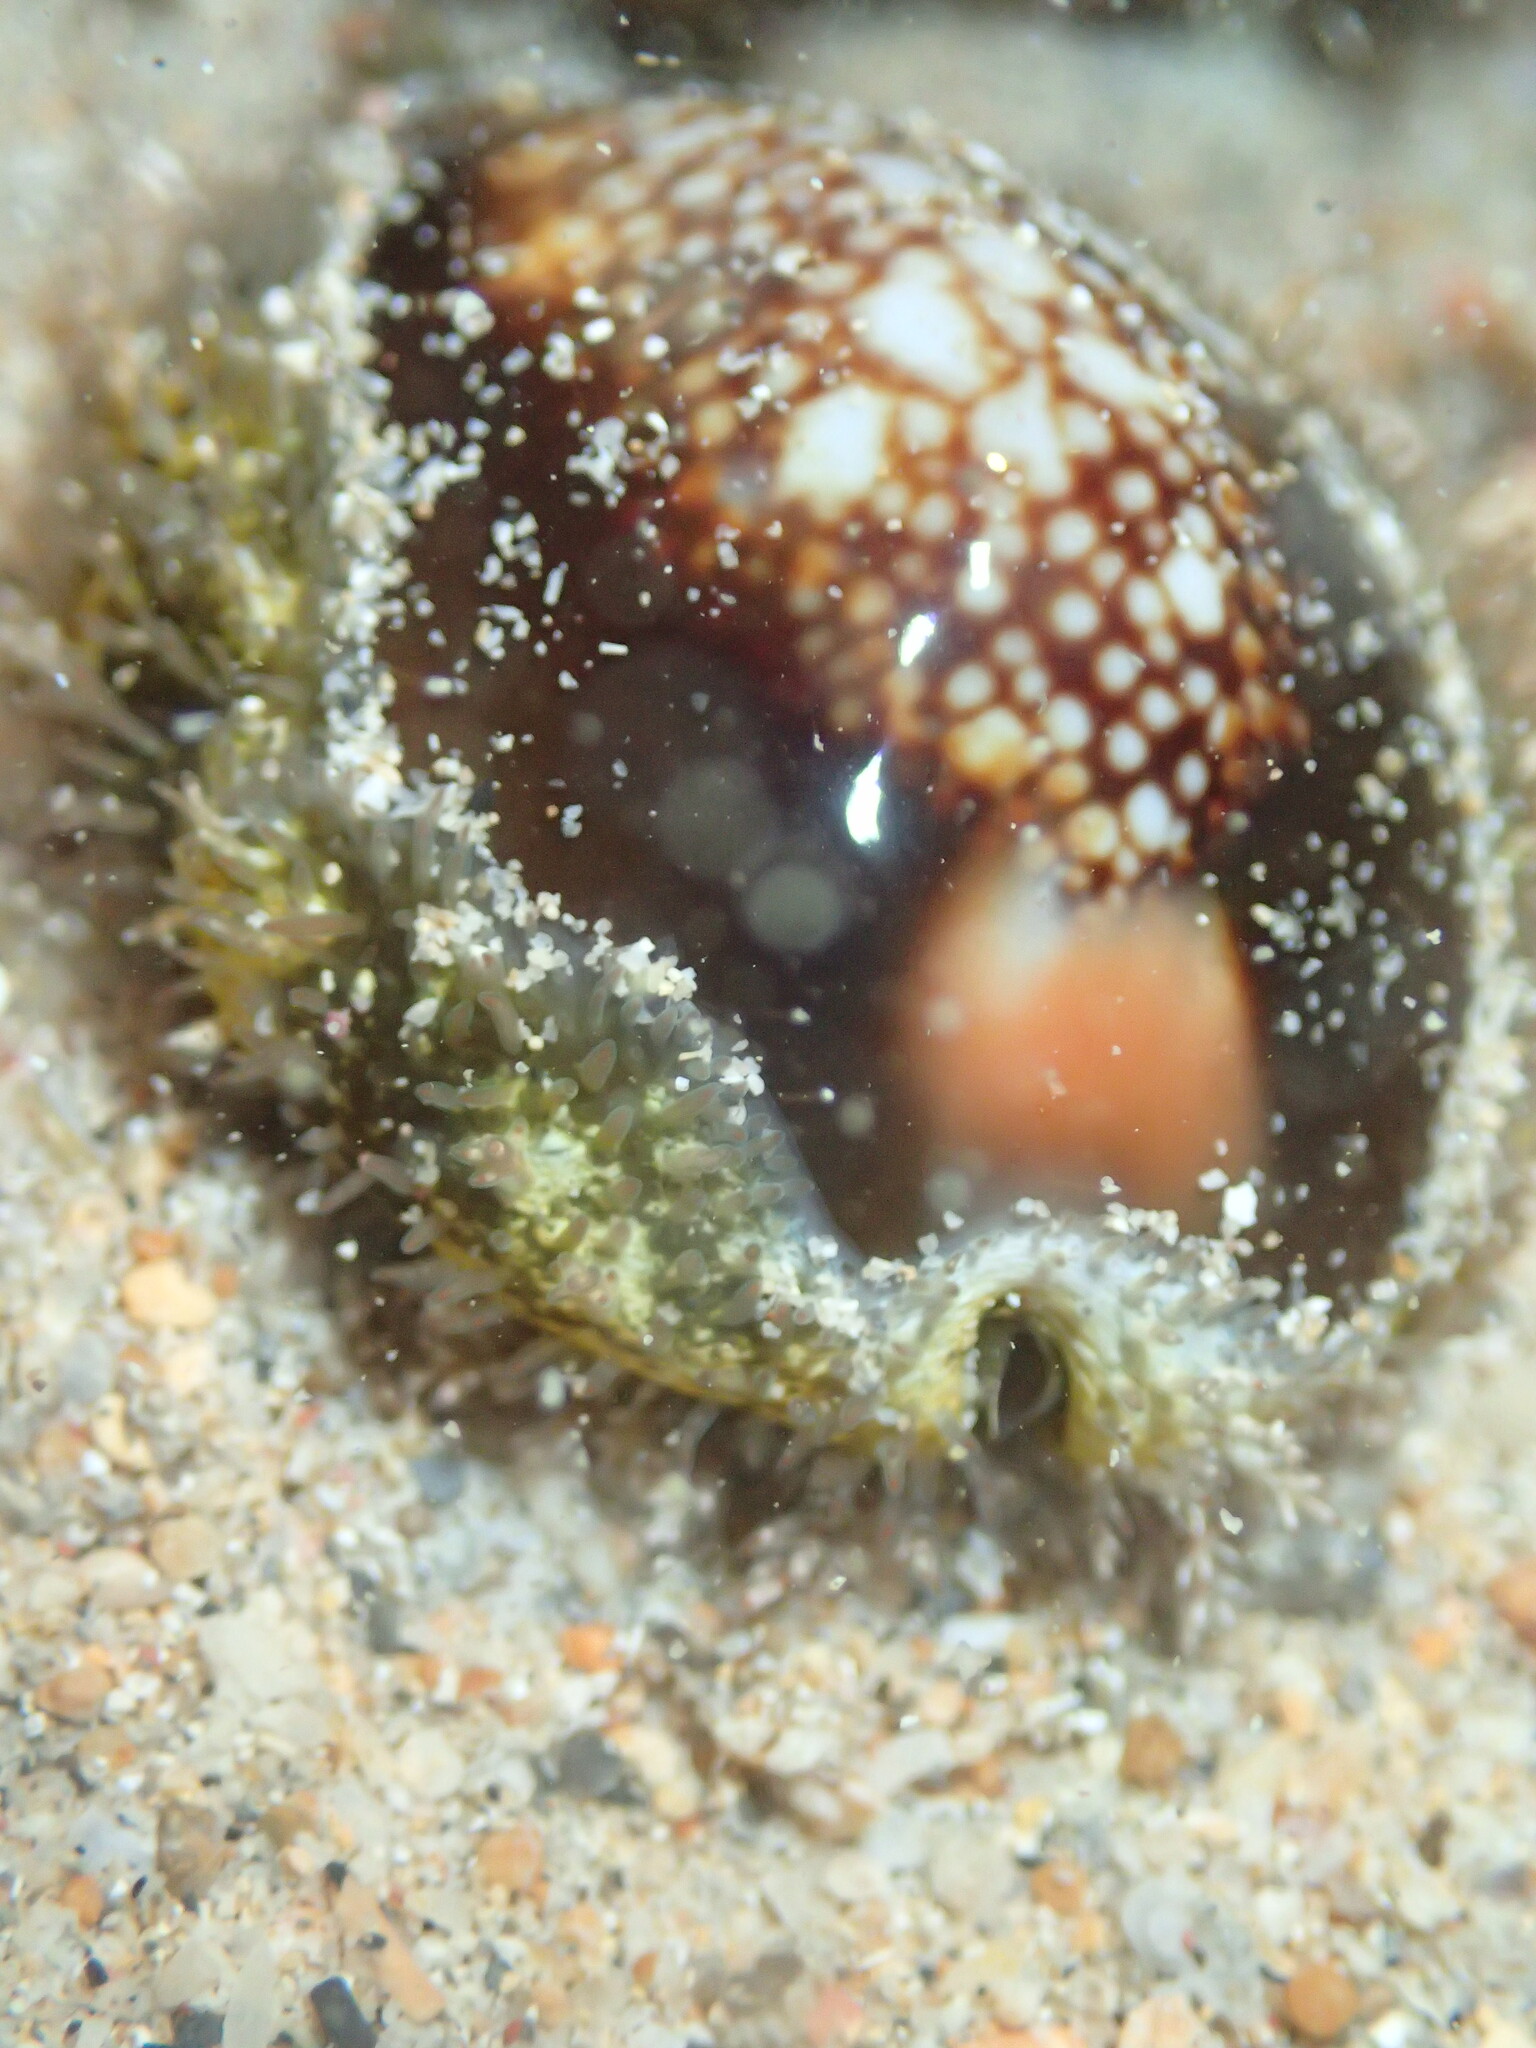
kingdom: Animalia
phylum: Mollusca
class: Gastropoda
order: Littorinimorpha
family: Cypraeidae
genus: Monetaria
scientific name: Monetaria caputserpentis
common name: Serpent's head cowrie
